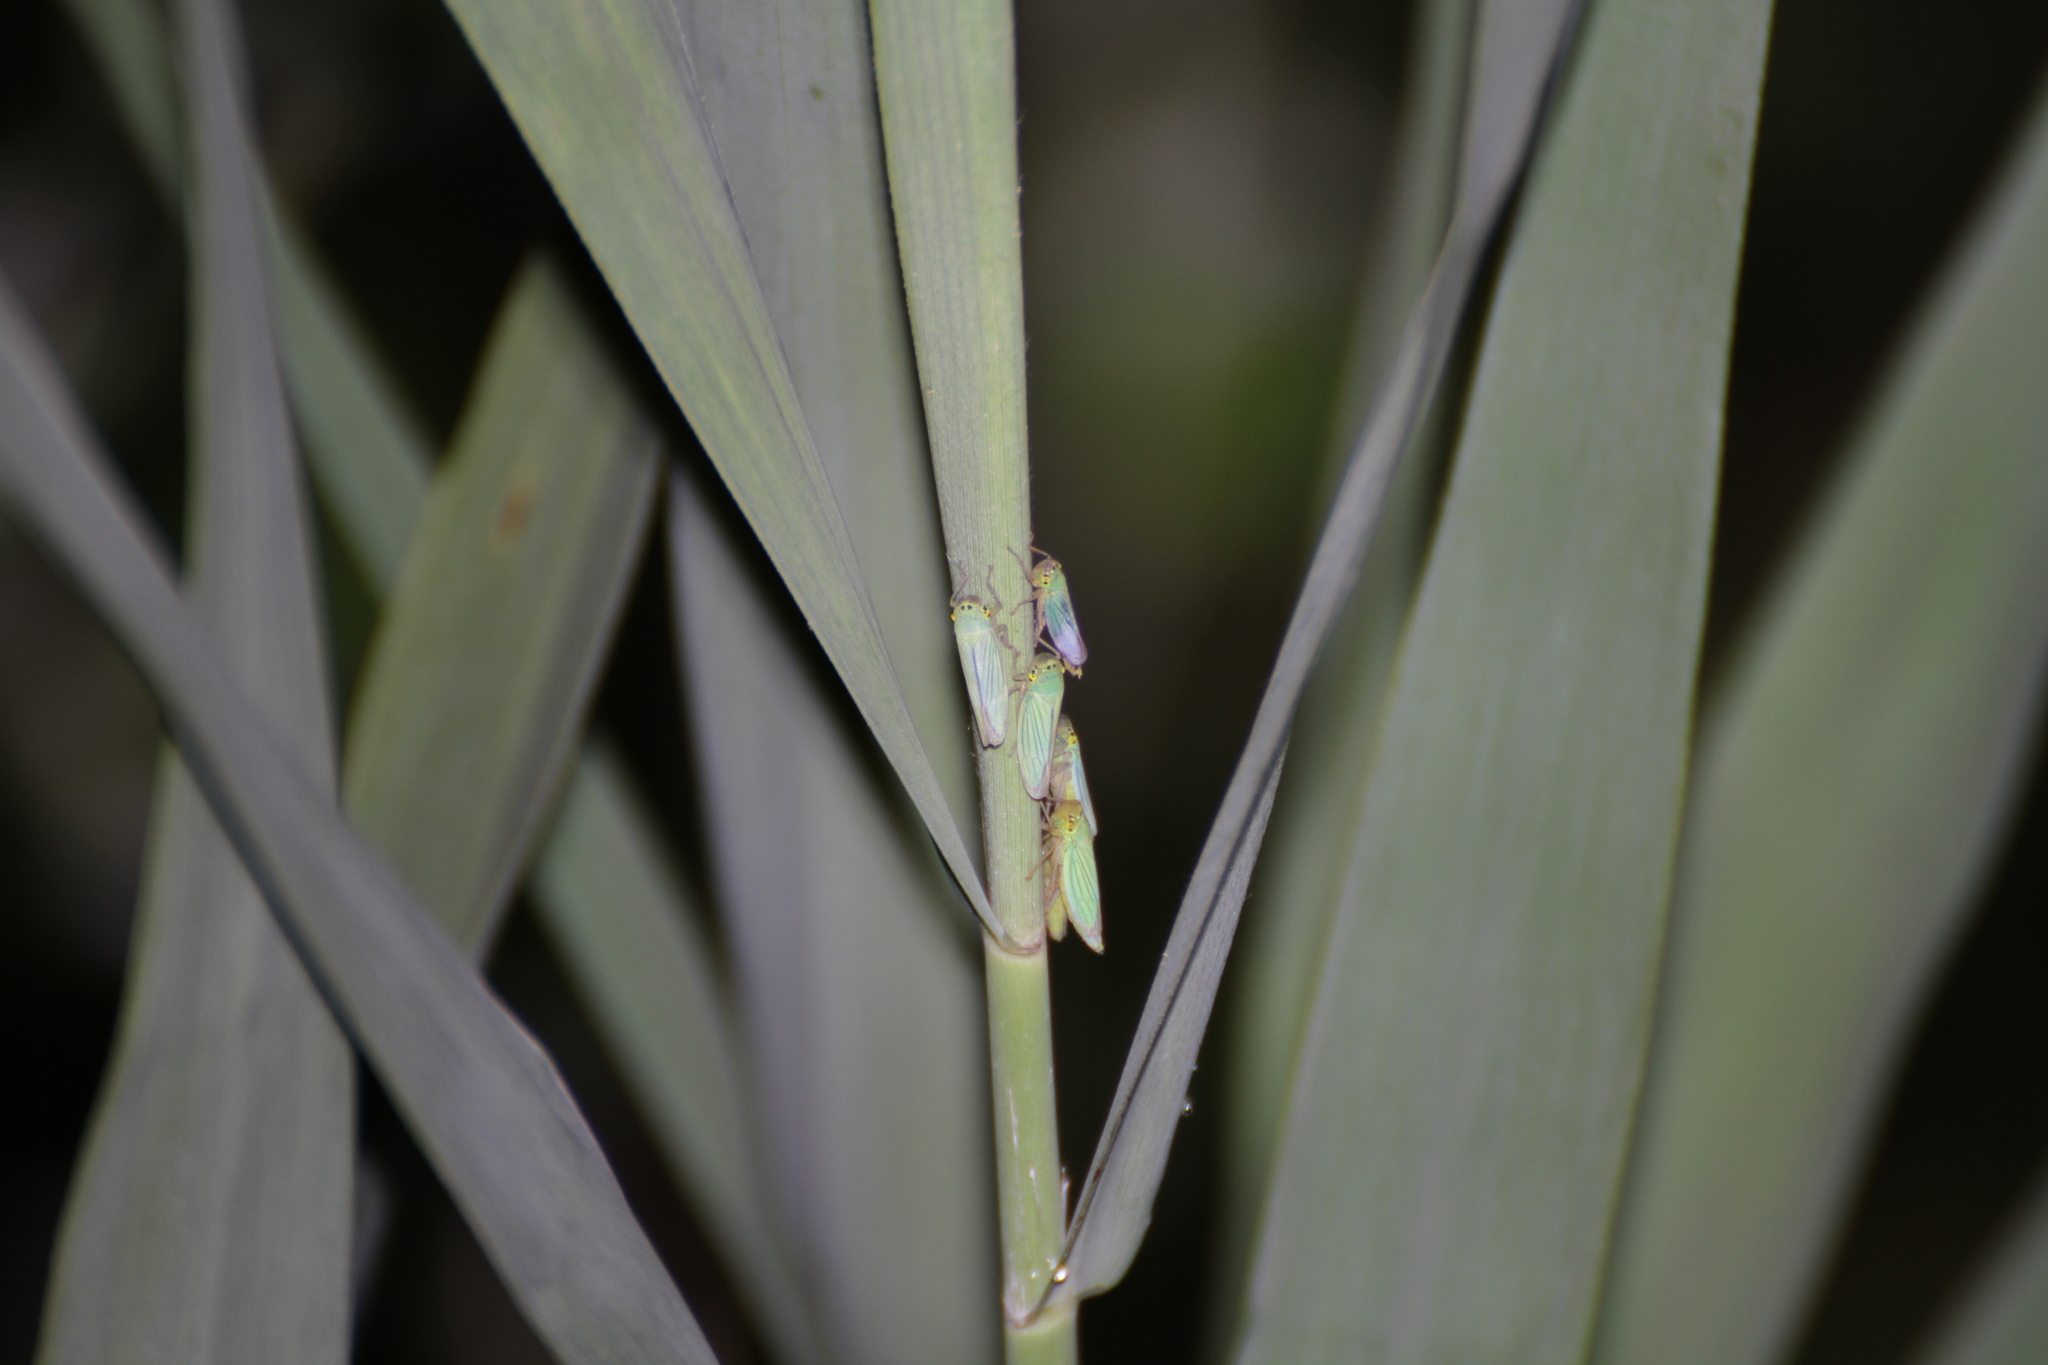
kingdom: Animalia
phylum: Arthropoda
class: Insecta
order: Hemiptera
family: Cicadellidae
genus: Cicadella
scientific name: Cicadella viridis
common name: Leafhopper
